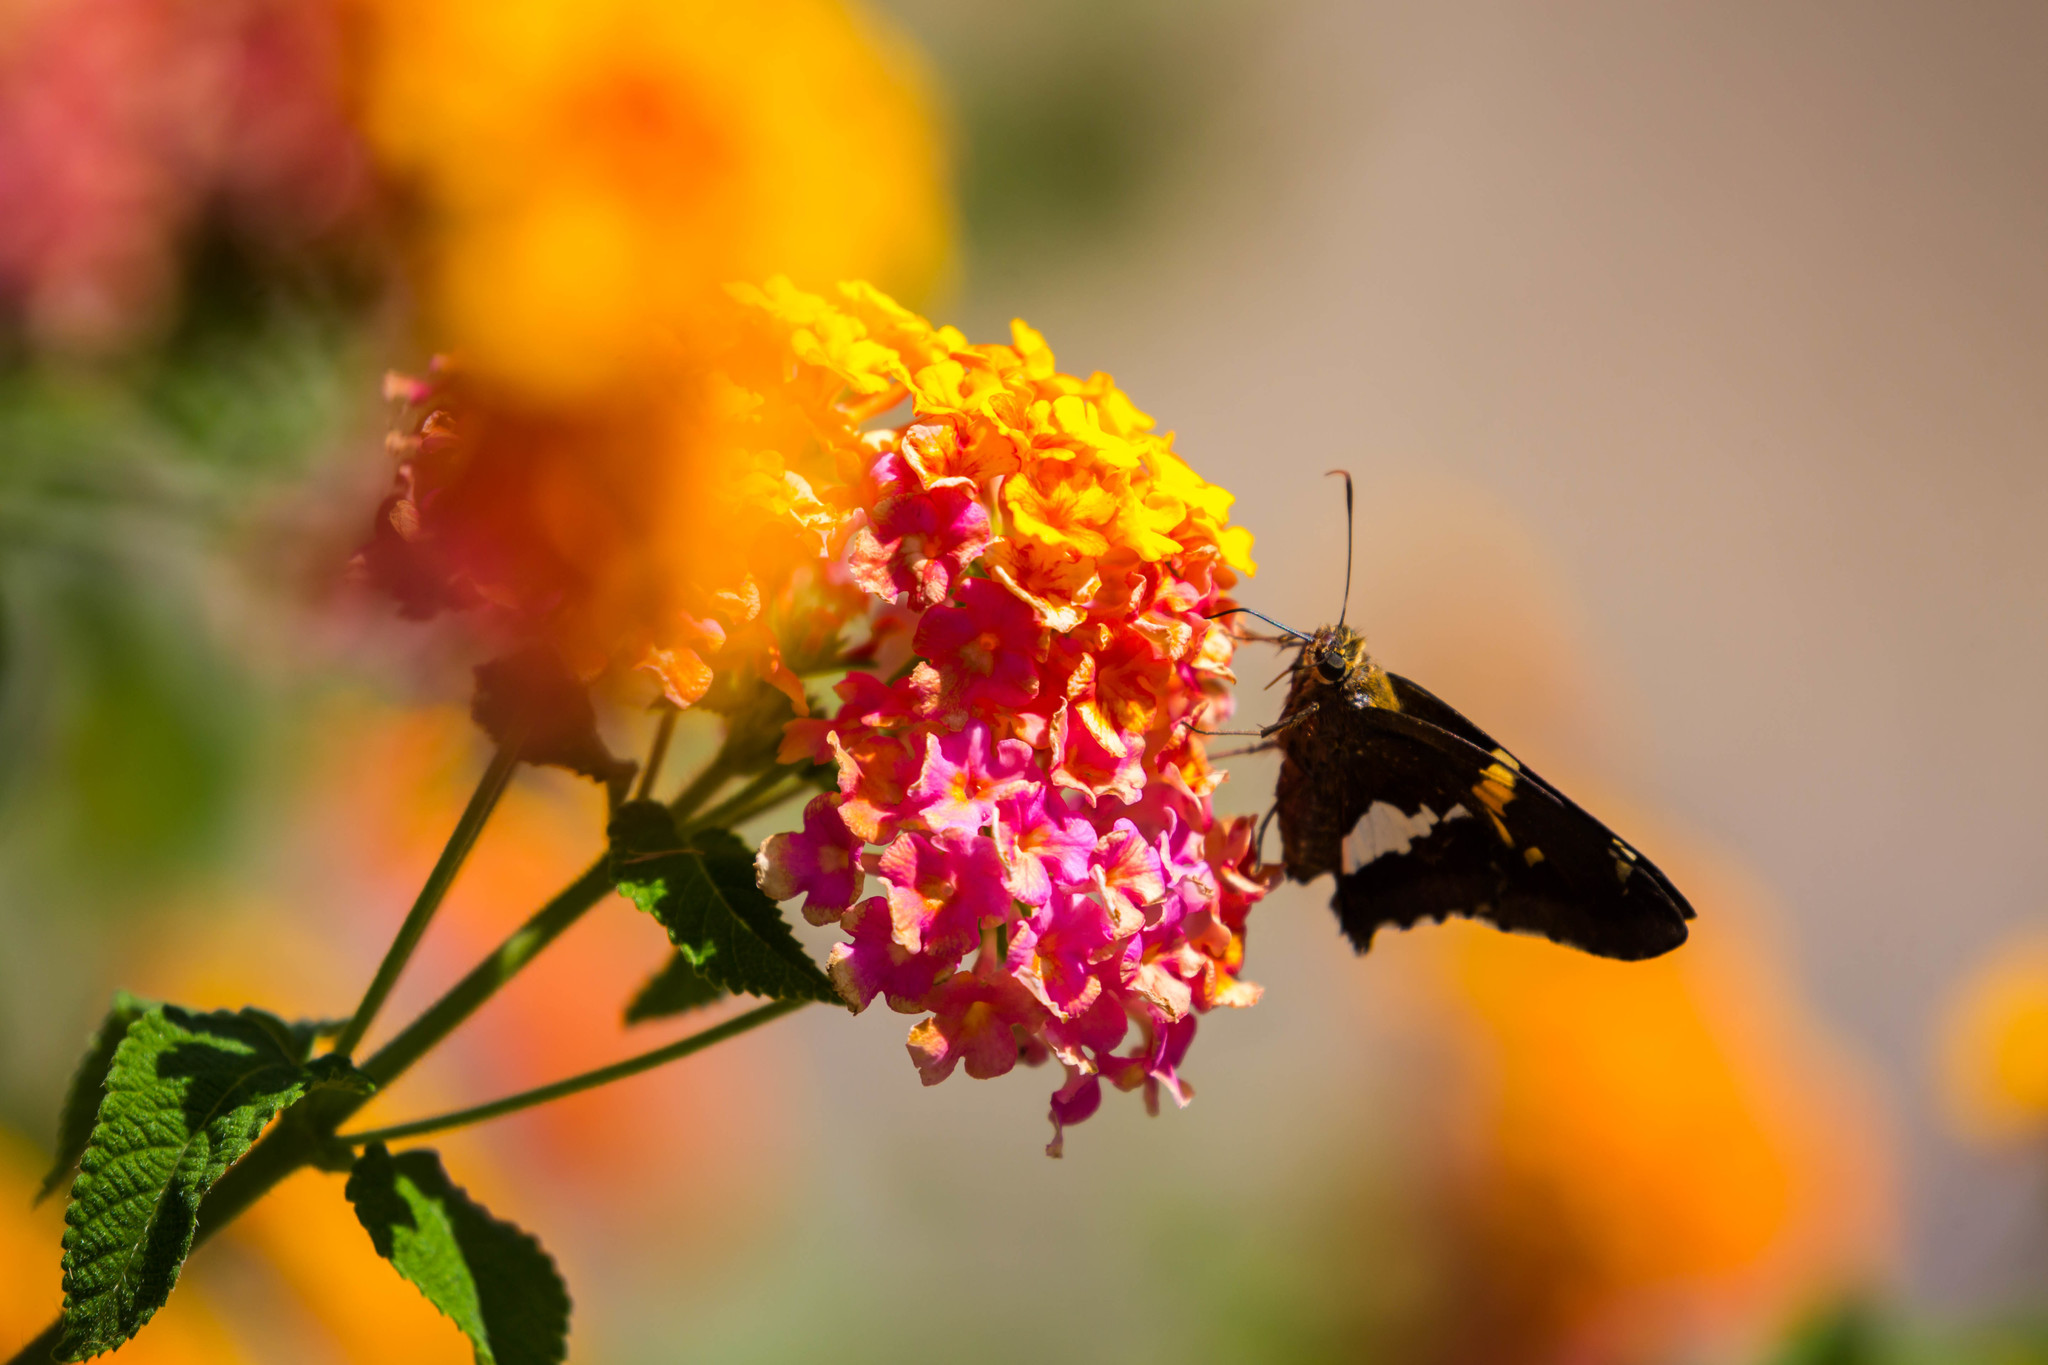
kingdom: Animalia
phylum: Arthropoda
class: Insecta
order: Lepidoptera
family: Hesperiidae
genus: Epargyreus
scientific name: Epargyreus clarus
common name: Silver-spotted skipper
